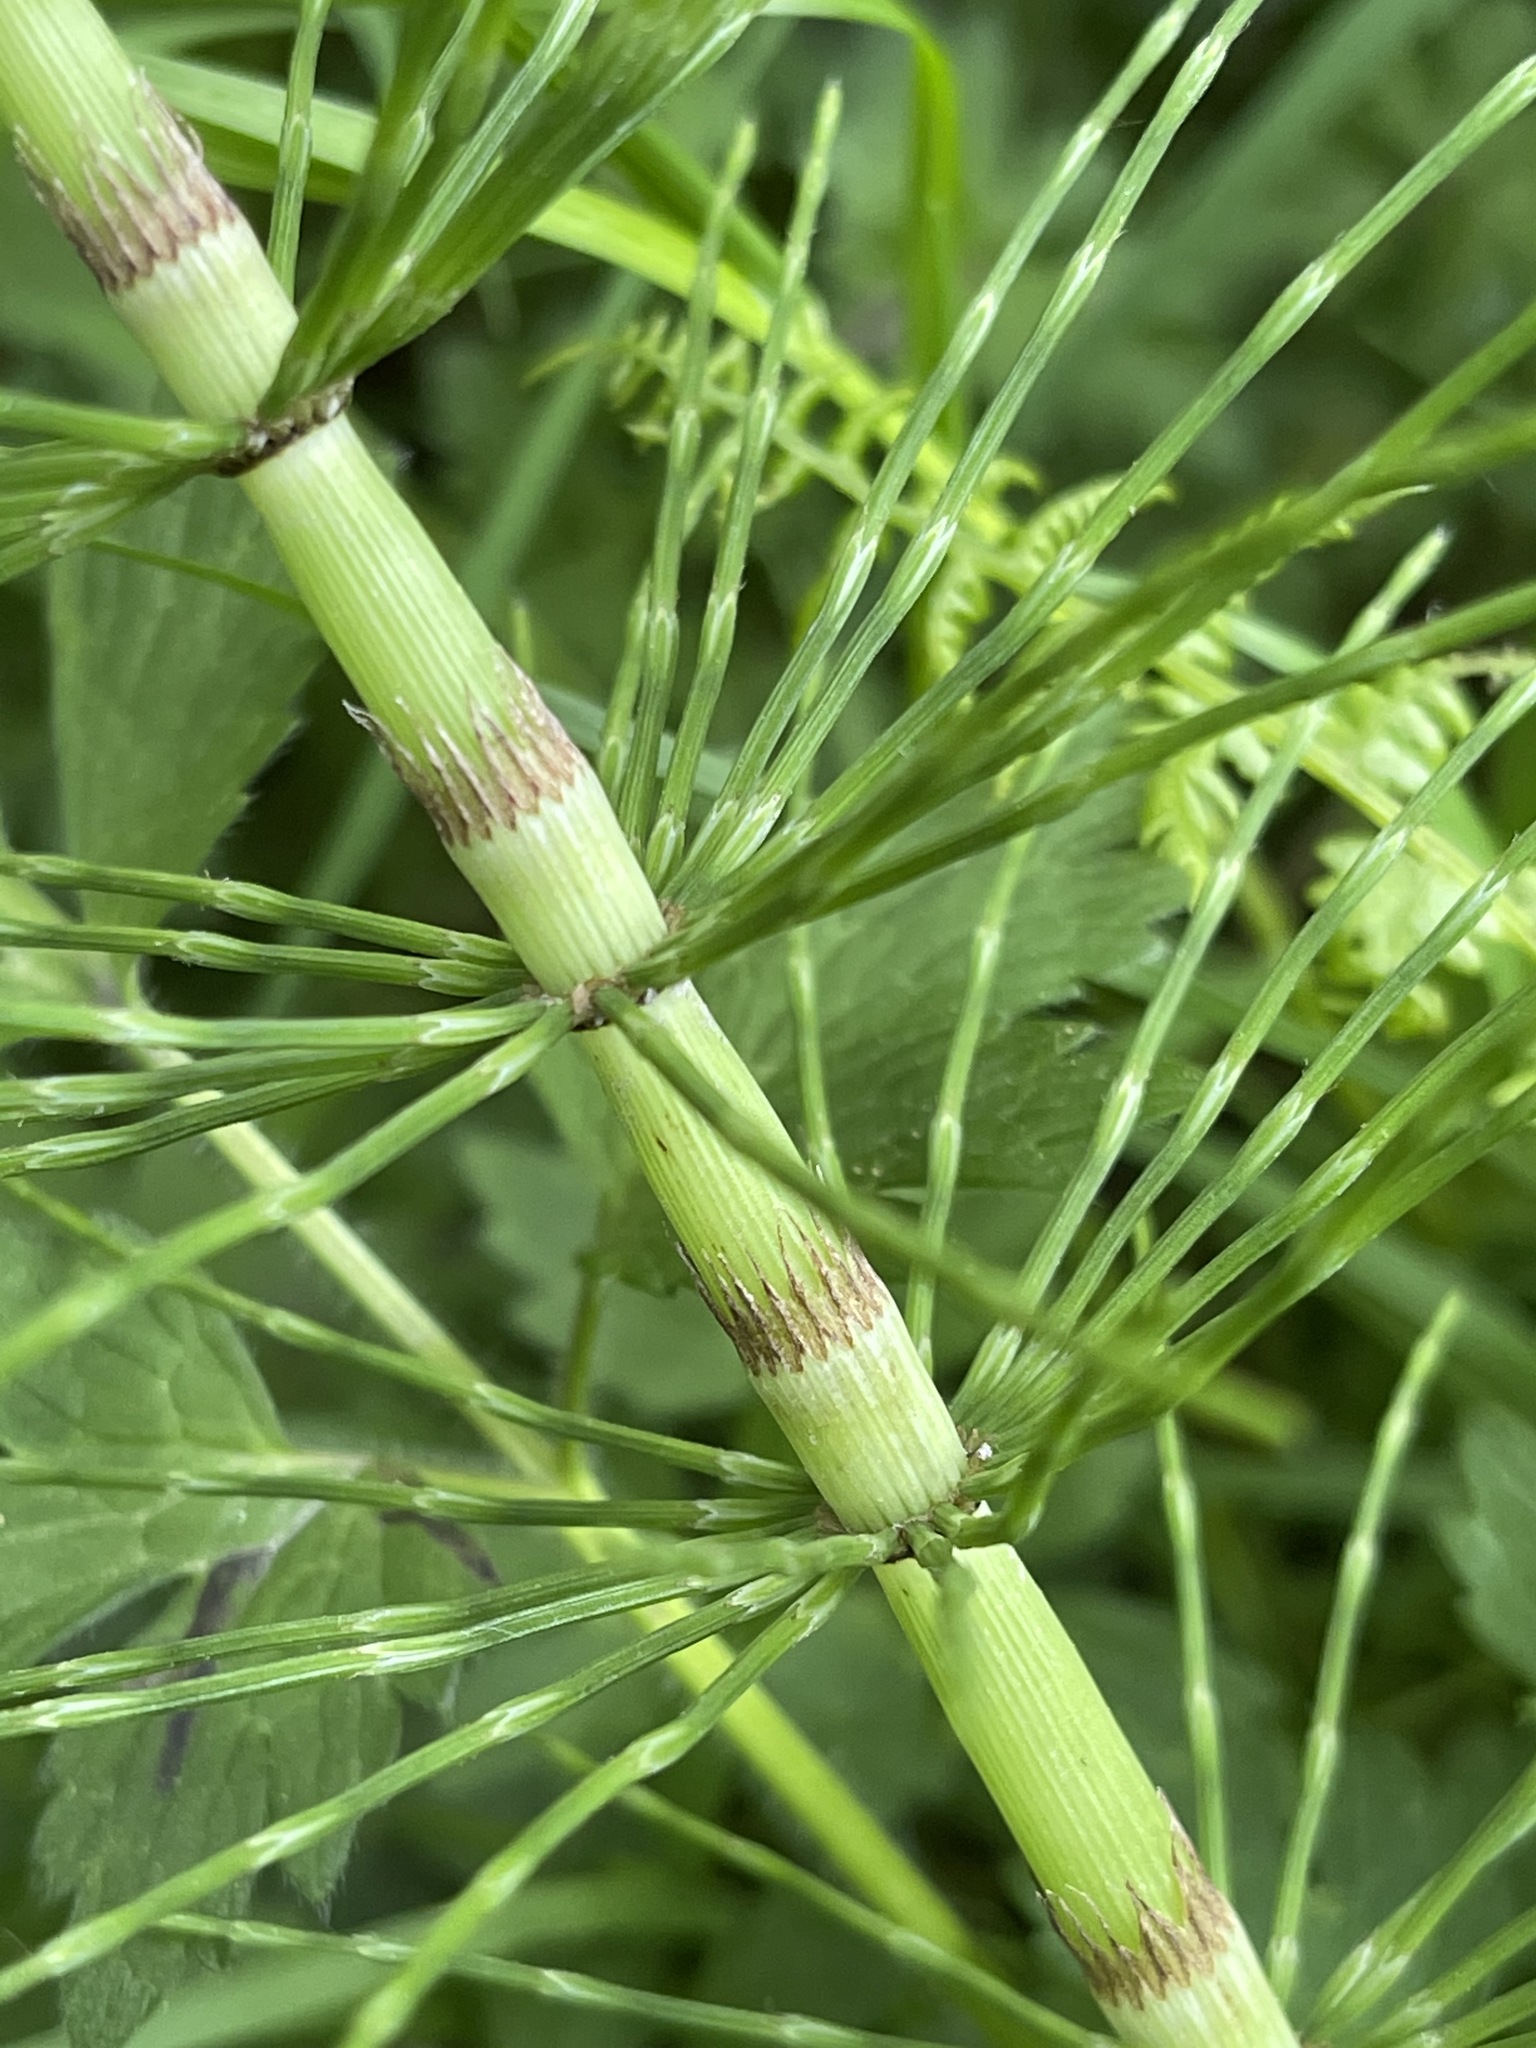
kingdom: Plantae
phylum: Tracheophyta
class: Polypodiopsida
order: Equisetales
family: Equisetaceae
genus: Equisetum
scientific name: Equisetum telmateia
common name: Great horsetail
